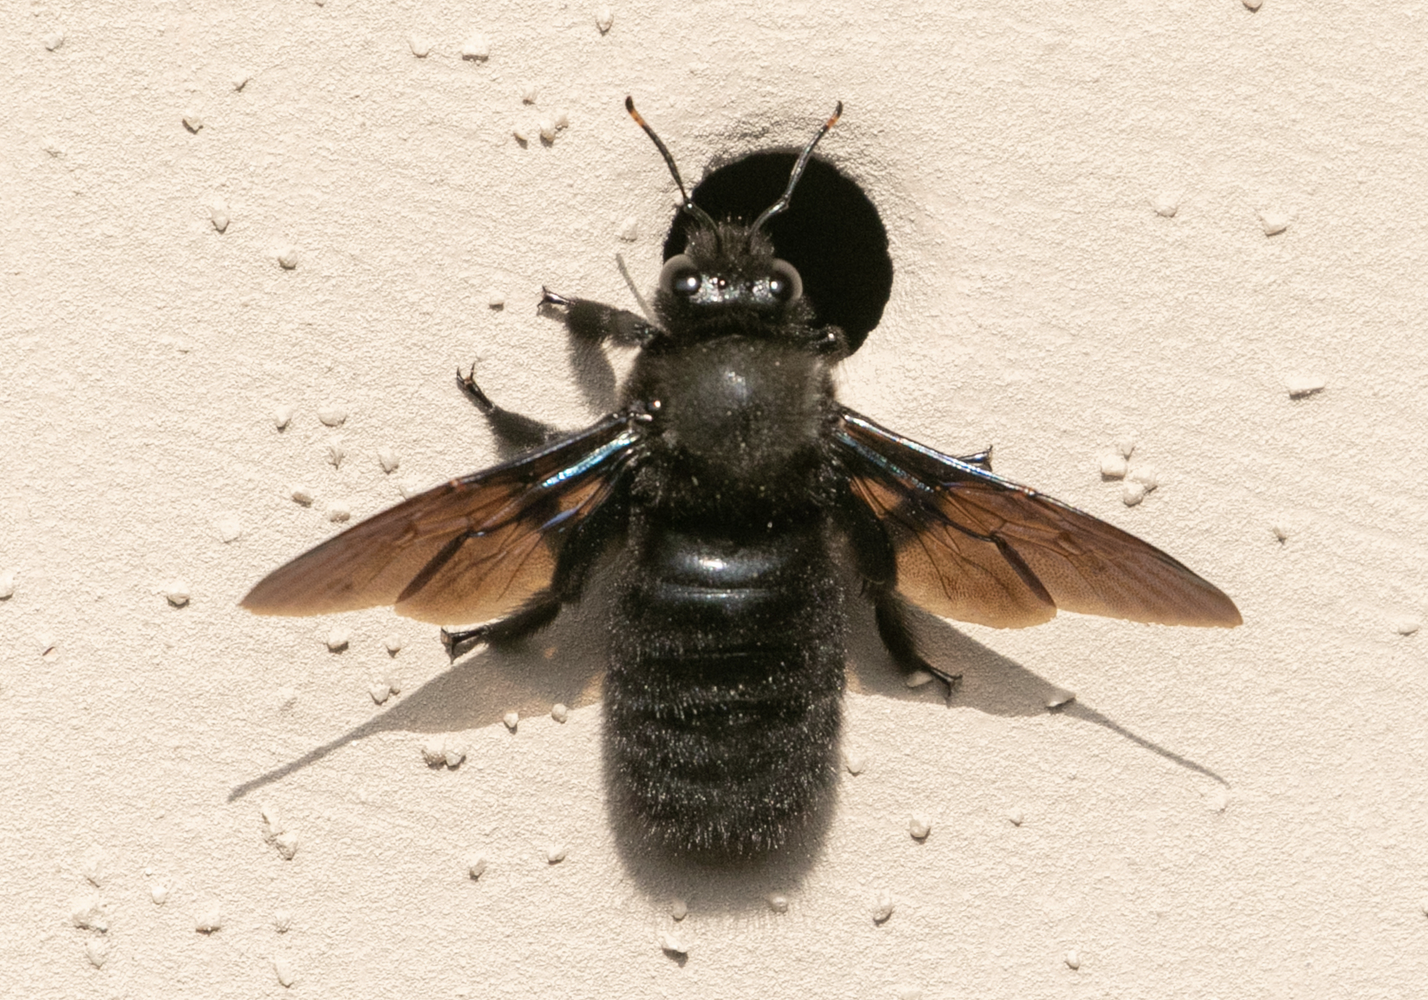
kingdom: Animalia
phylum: Arthropoda
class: Insecta
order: Hymenoptera
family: Apidae
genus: Xylocopa
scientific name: Xylocopa violacea
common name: Violet carpenter bee
